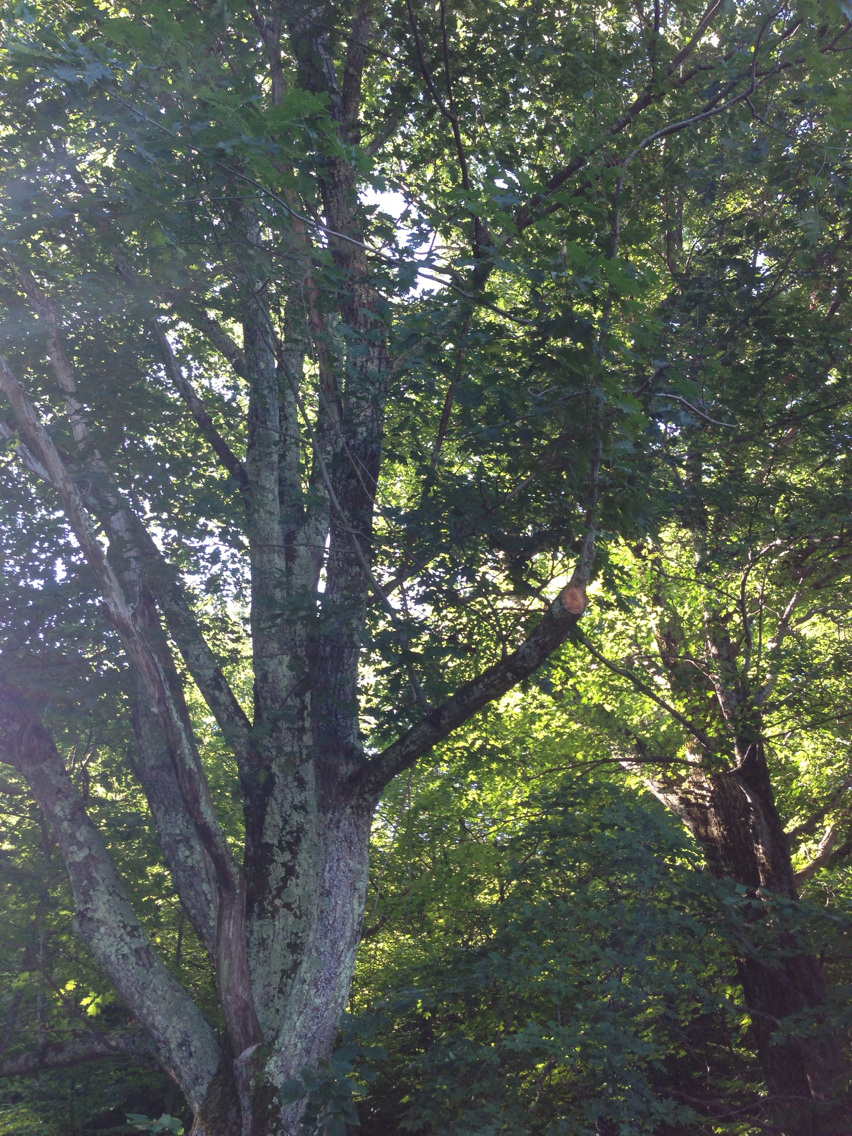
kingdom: Plantae
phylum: Tracheophyta
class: Magnoliopsida
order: Fagales
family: Fagaceae
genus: Quercus
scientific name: Quercus rubra
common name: Red oak
